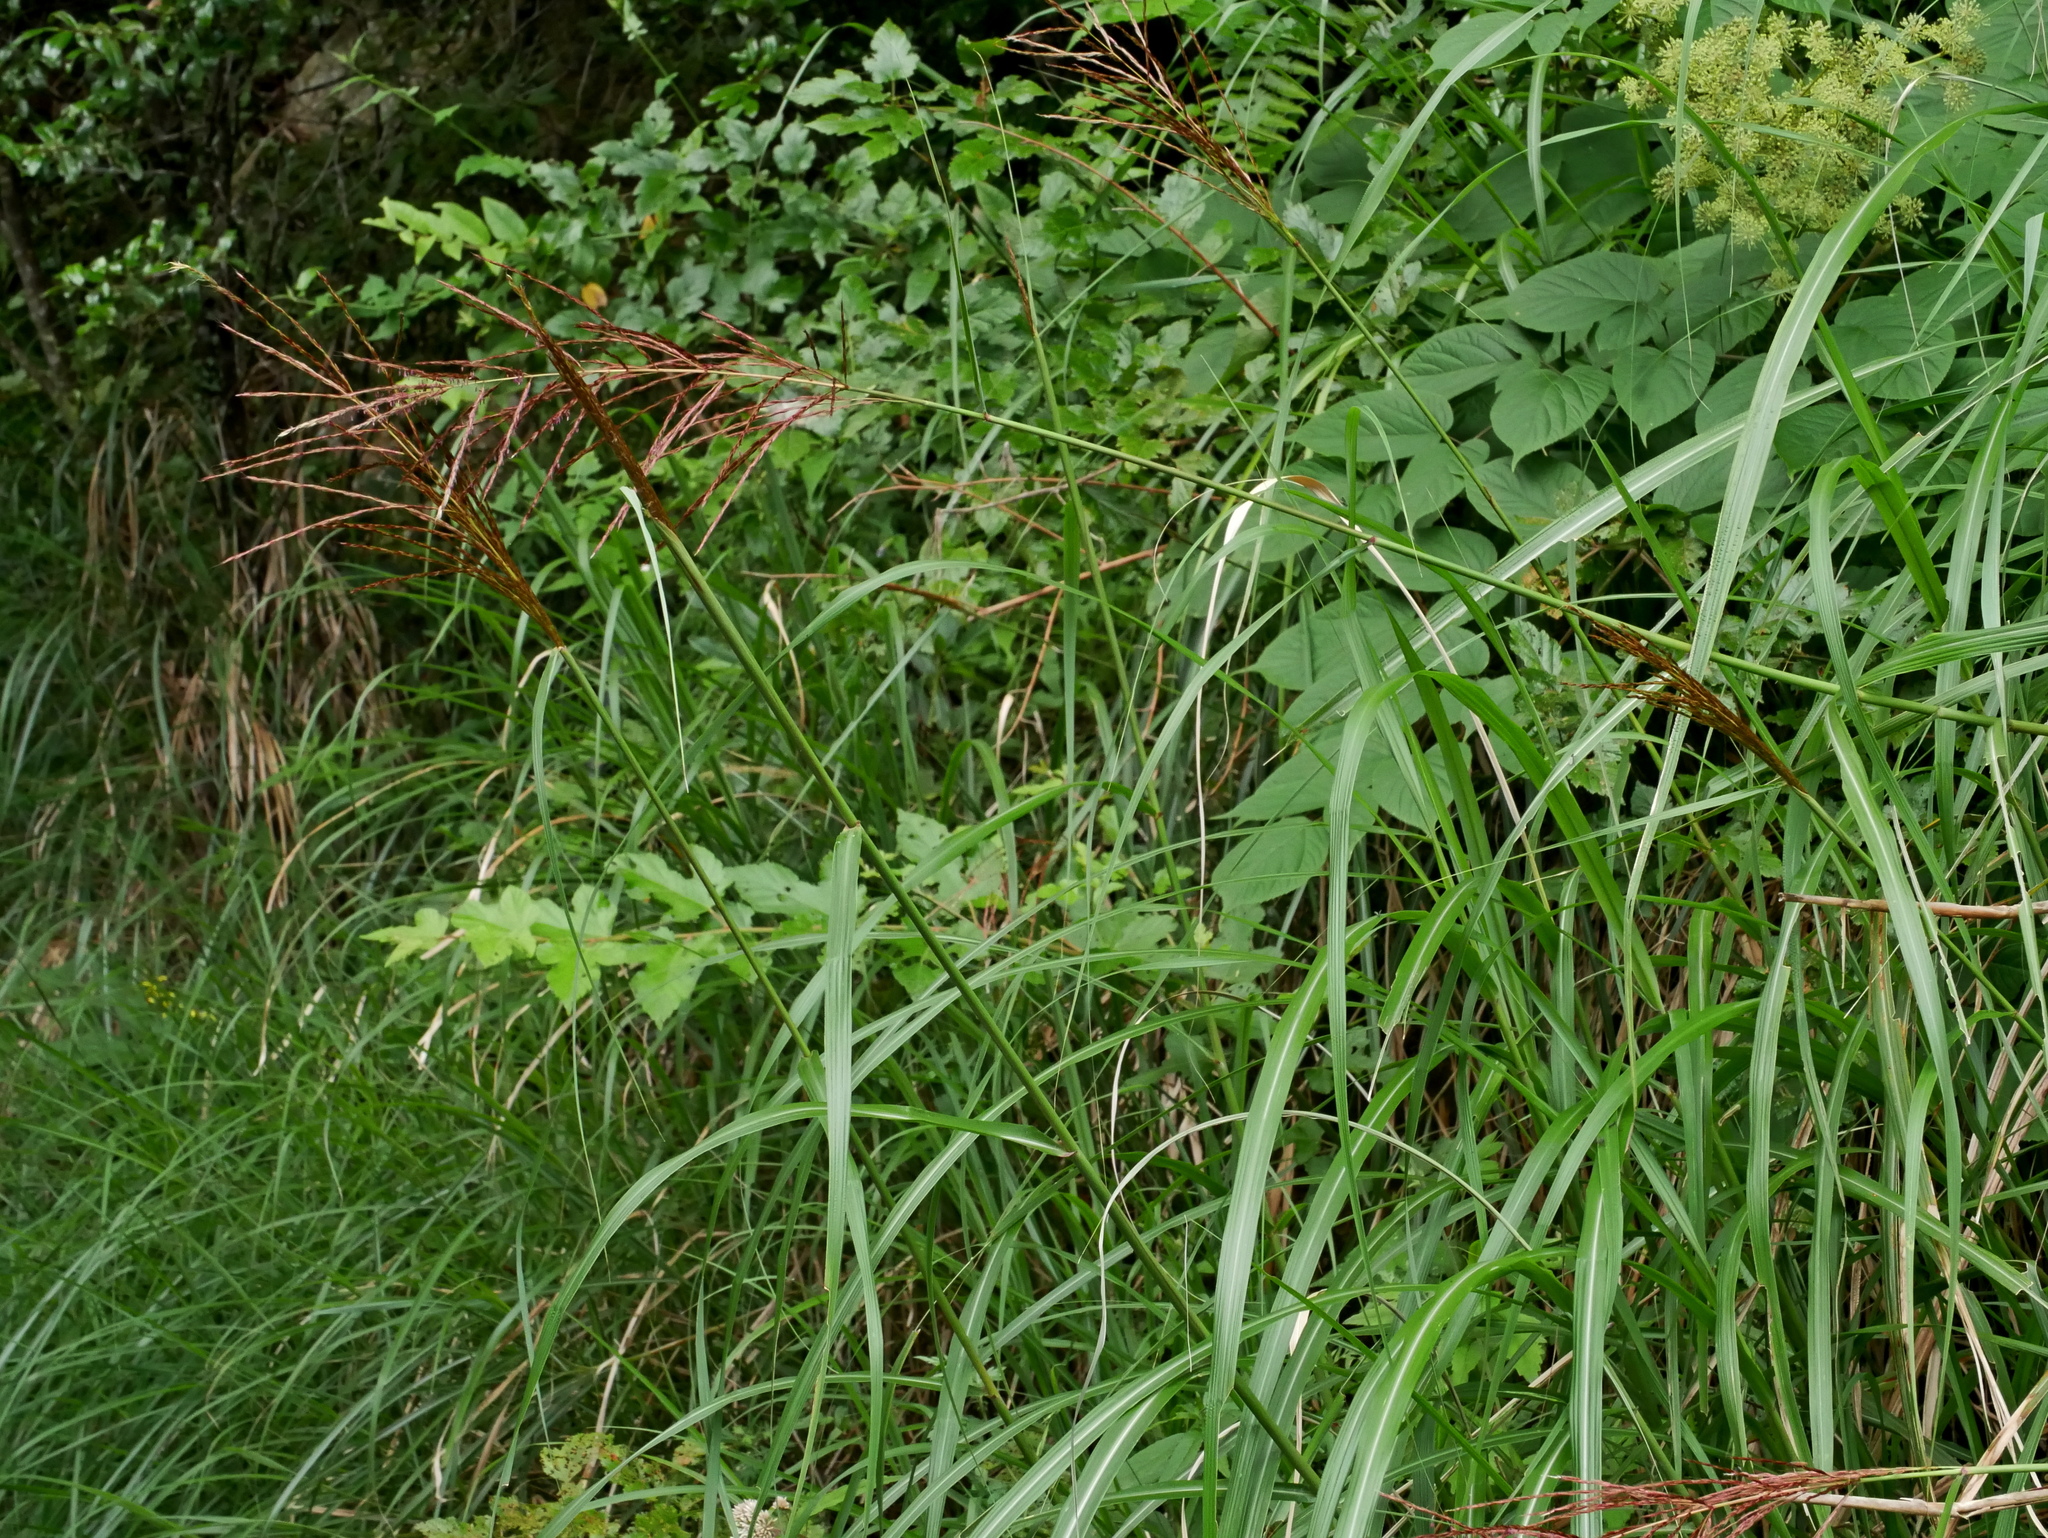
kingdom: Plantae
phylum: Tracheophyta
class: Liliopsida
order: Poales
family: Poaceae
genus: Miscanthus
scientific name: Miscanthus sinensis
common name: Chinese silvergrass
